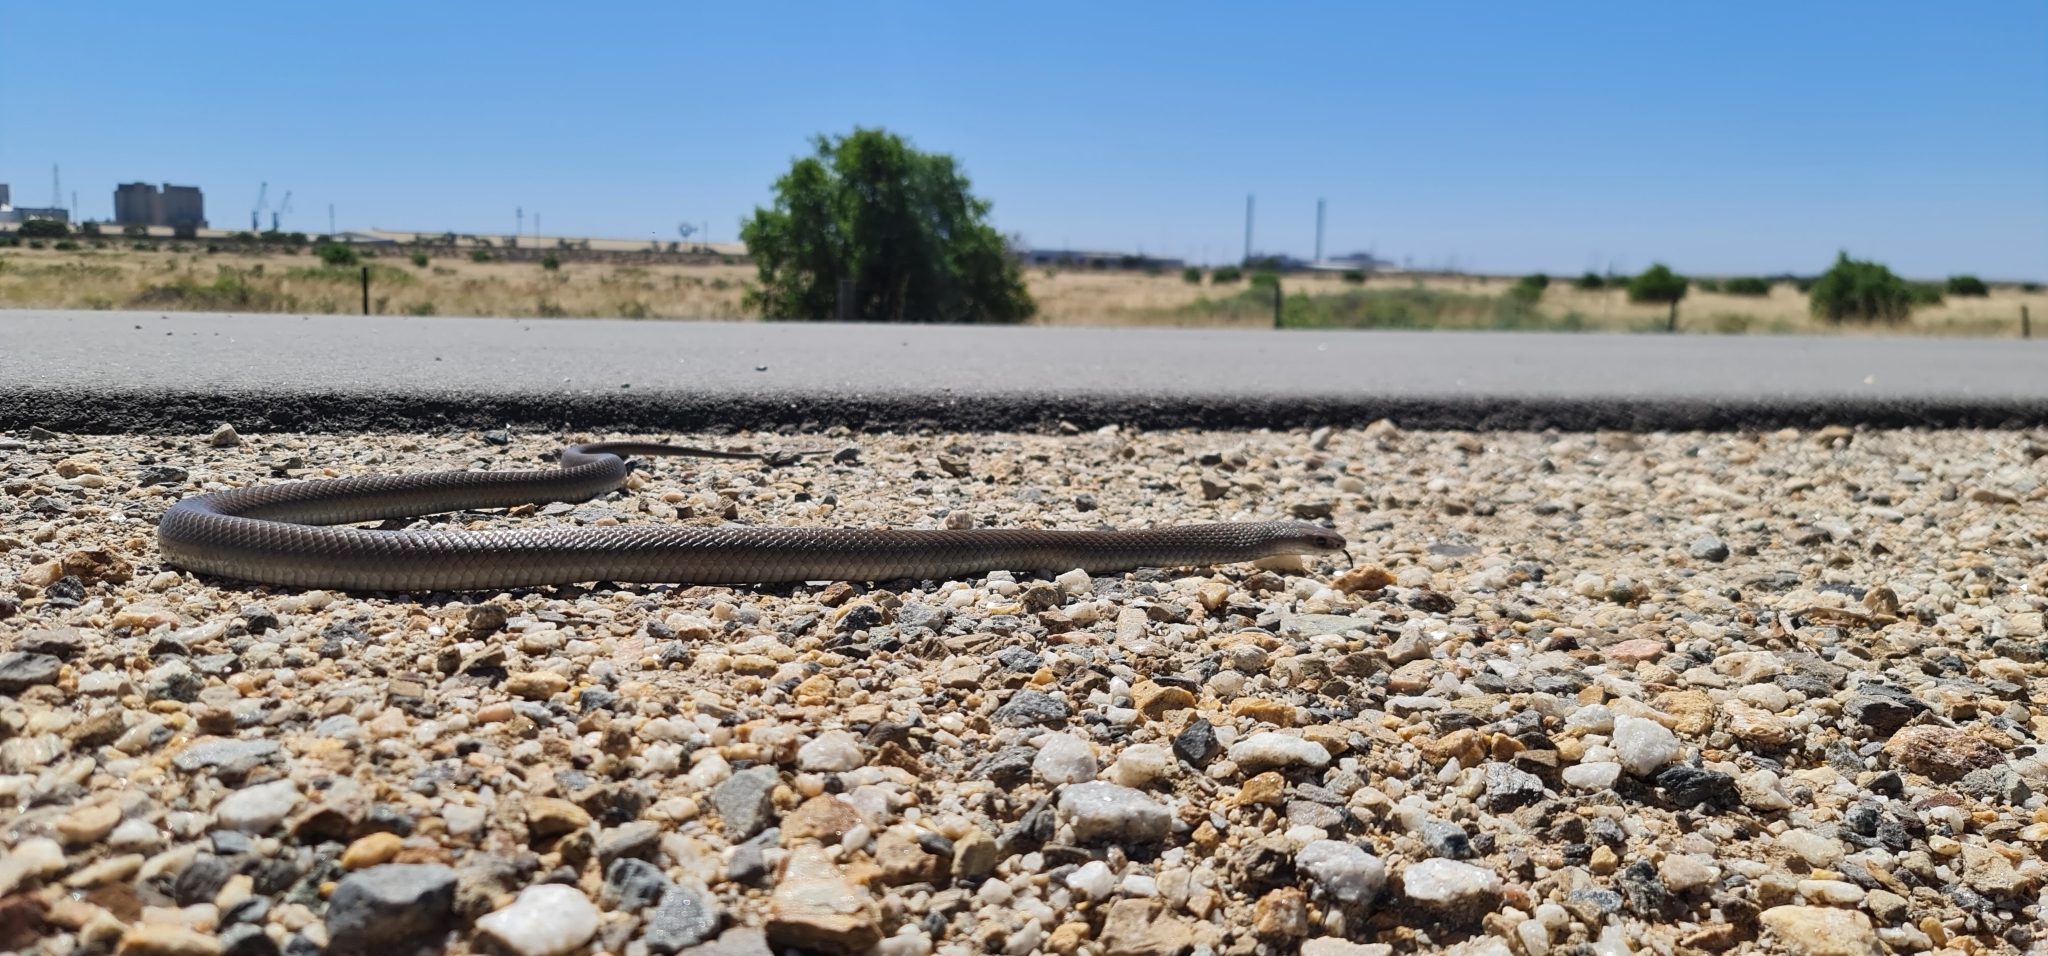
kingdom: Animalia
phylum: Chordata
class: Squamata
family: Elapidae
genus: Pseudonaja
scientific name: Pseudonaja textilis
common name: Eastern brown snake
